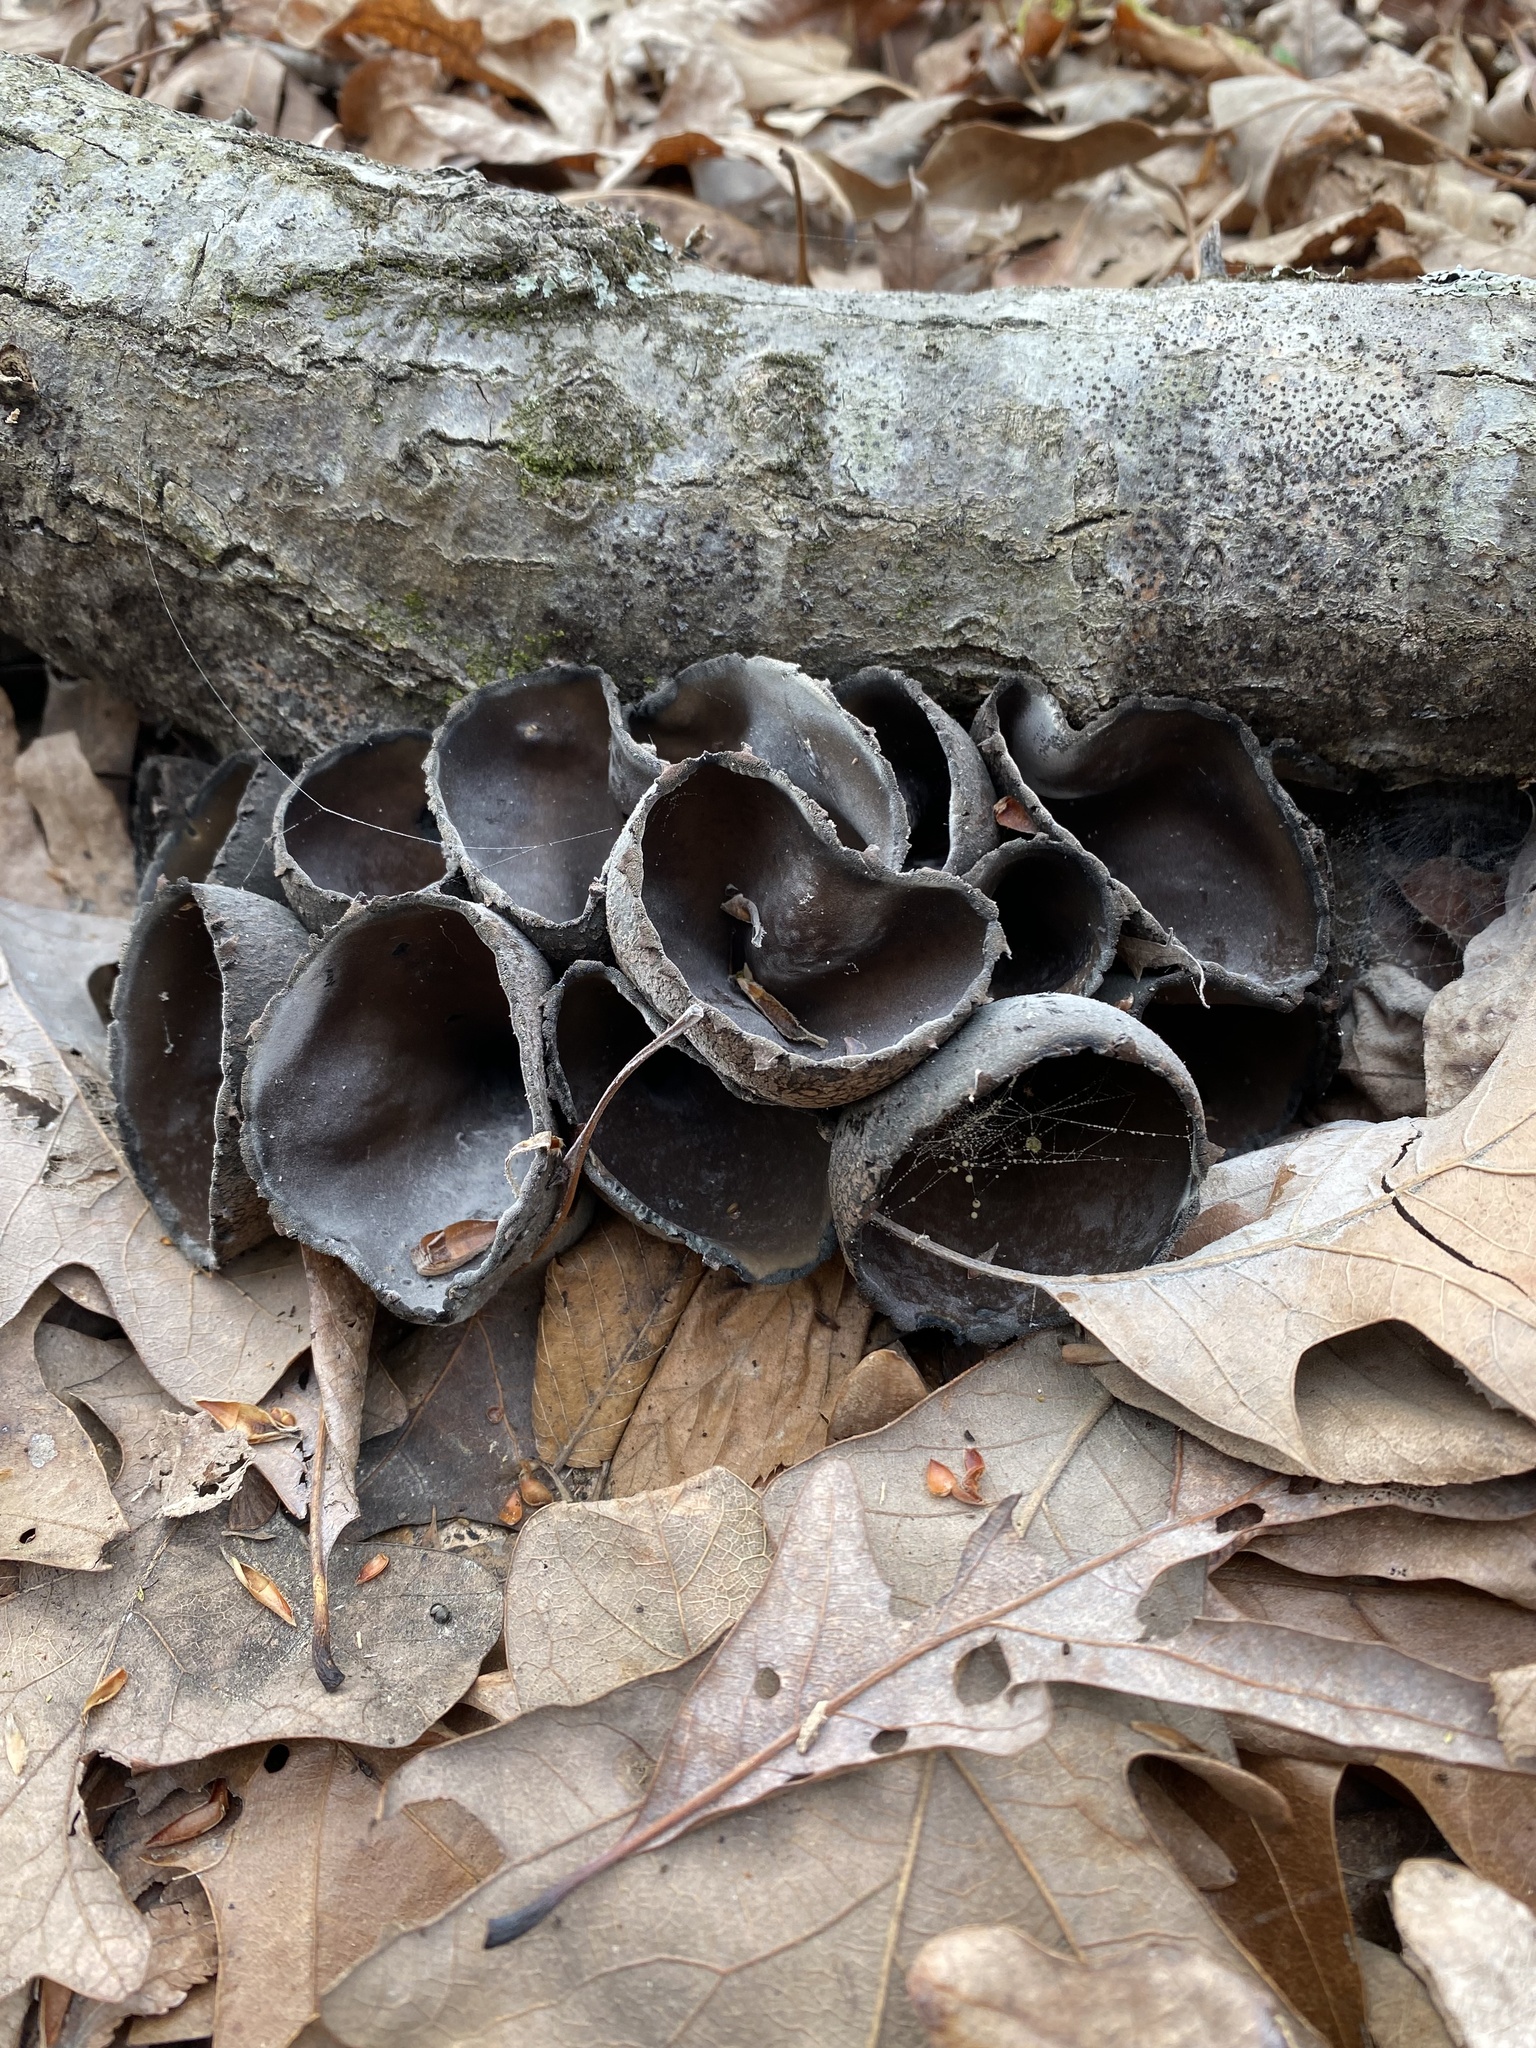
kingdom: Fungi
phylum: Ascomycota
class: Pezizomycetes
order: Pezizales
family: Sarcosomataceae
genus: Urnula
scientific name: Urnula craterium
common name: Devil's urn
